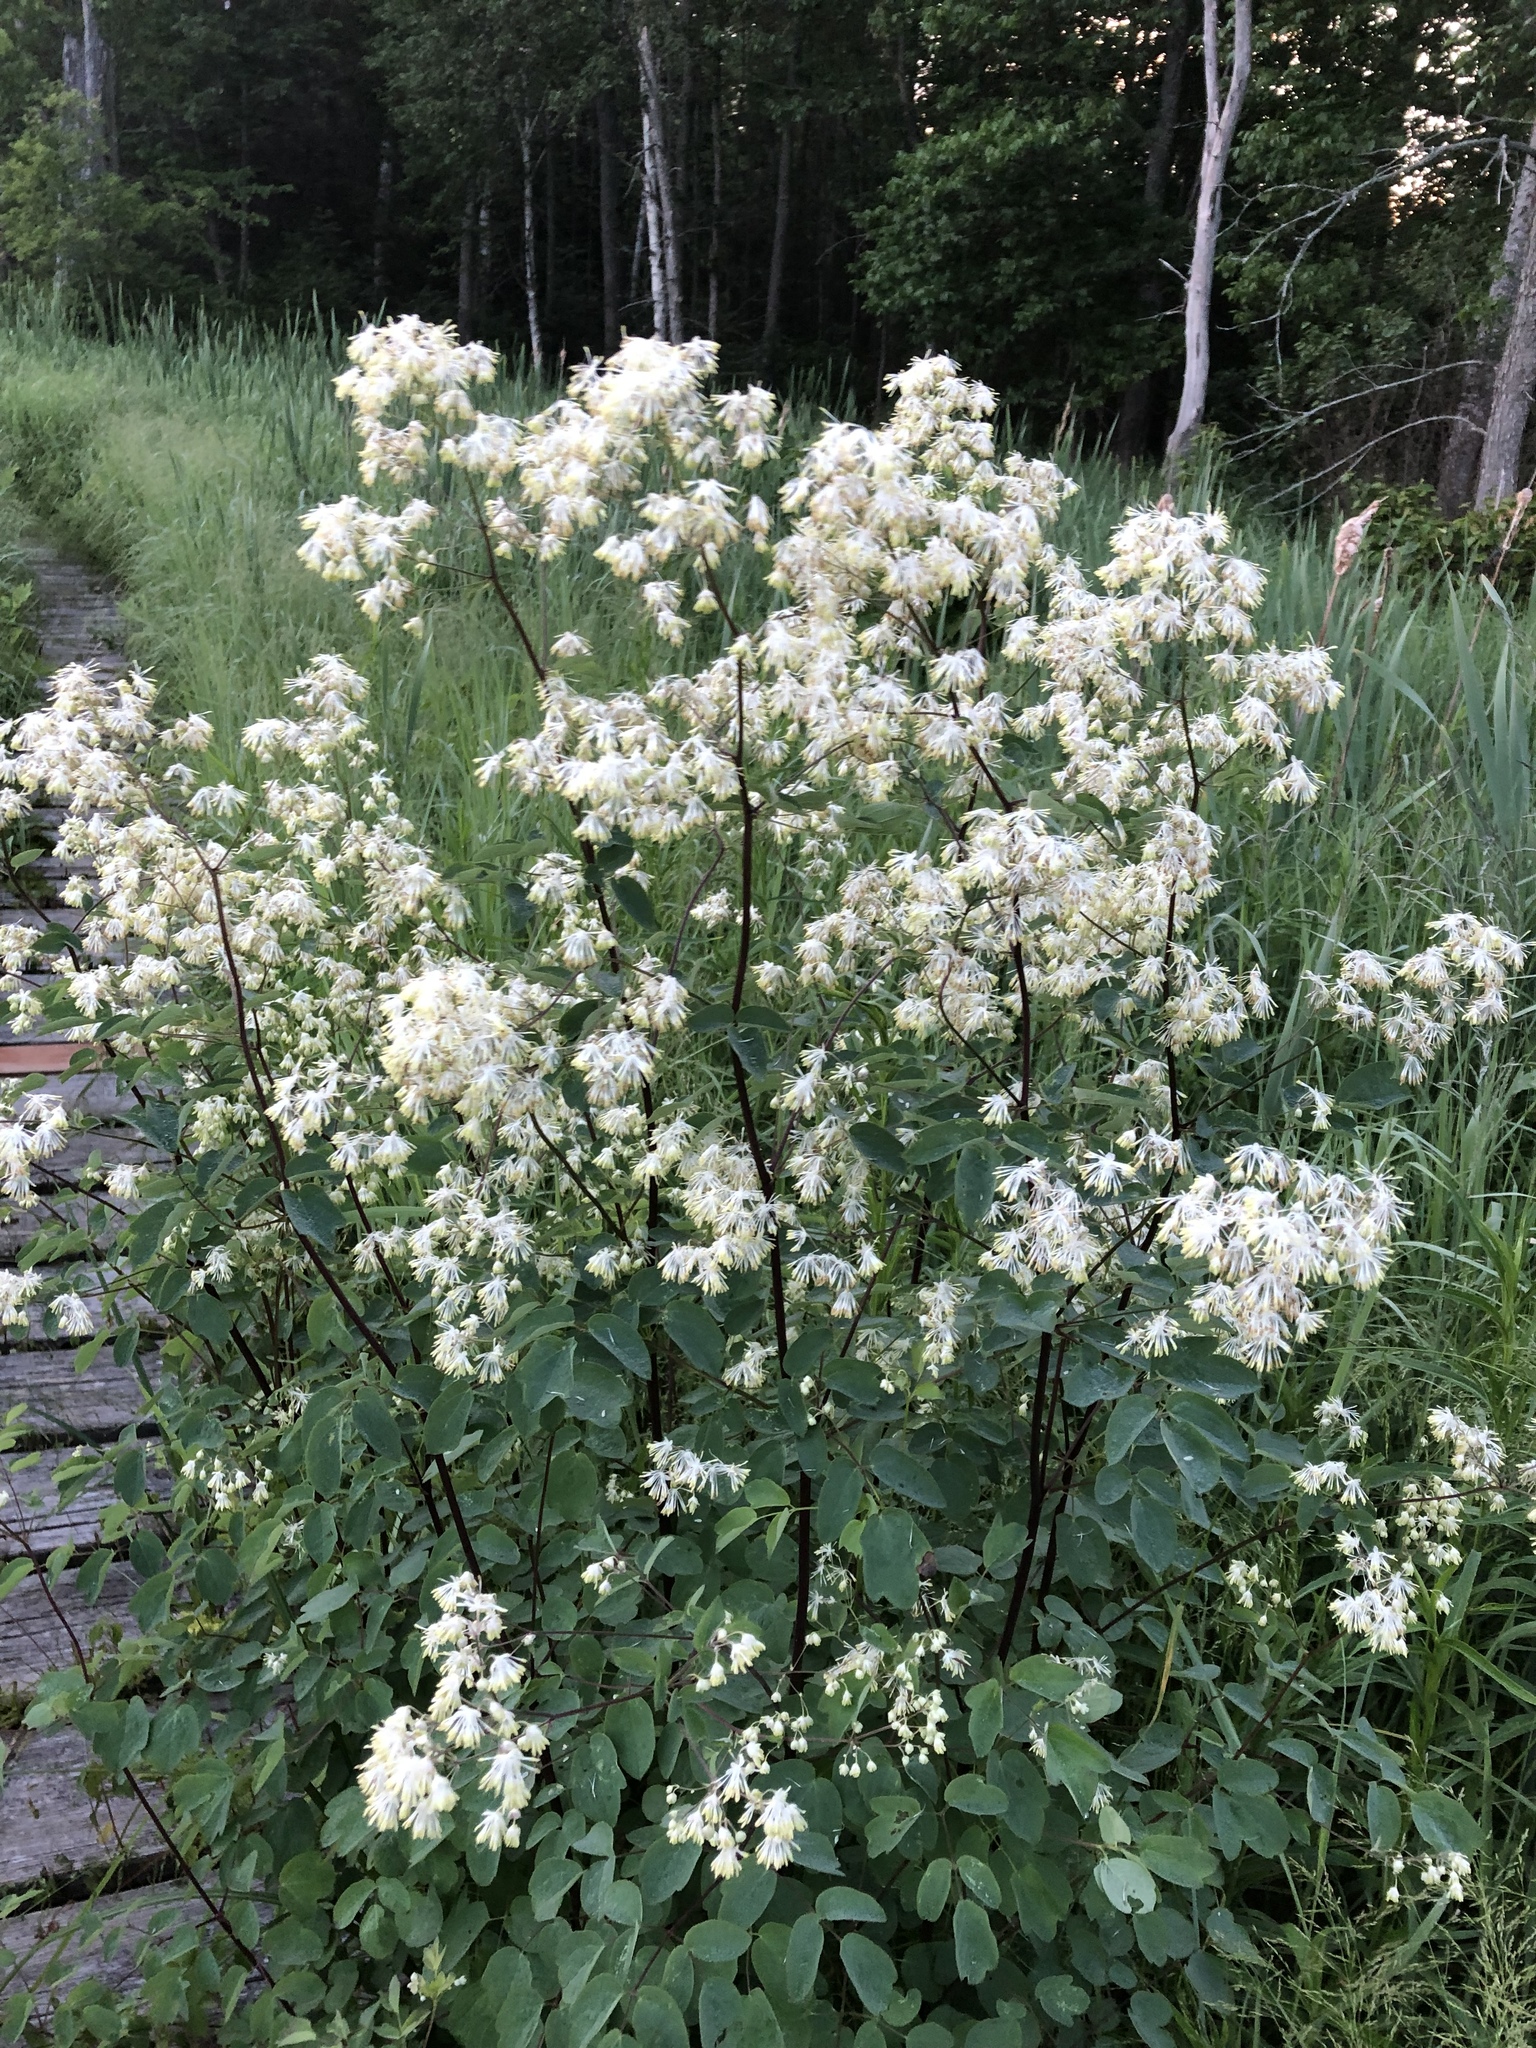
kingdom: Plantae
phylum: Tracheophyta
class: Magnoliopsida
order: Ranunculales
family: Ranunculaceae
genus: Thalictrum
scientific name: Thalictrum dasycarpum
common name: Purple meadow-rue
